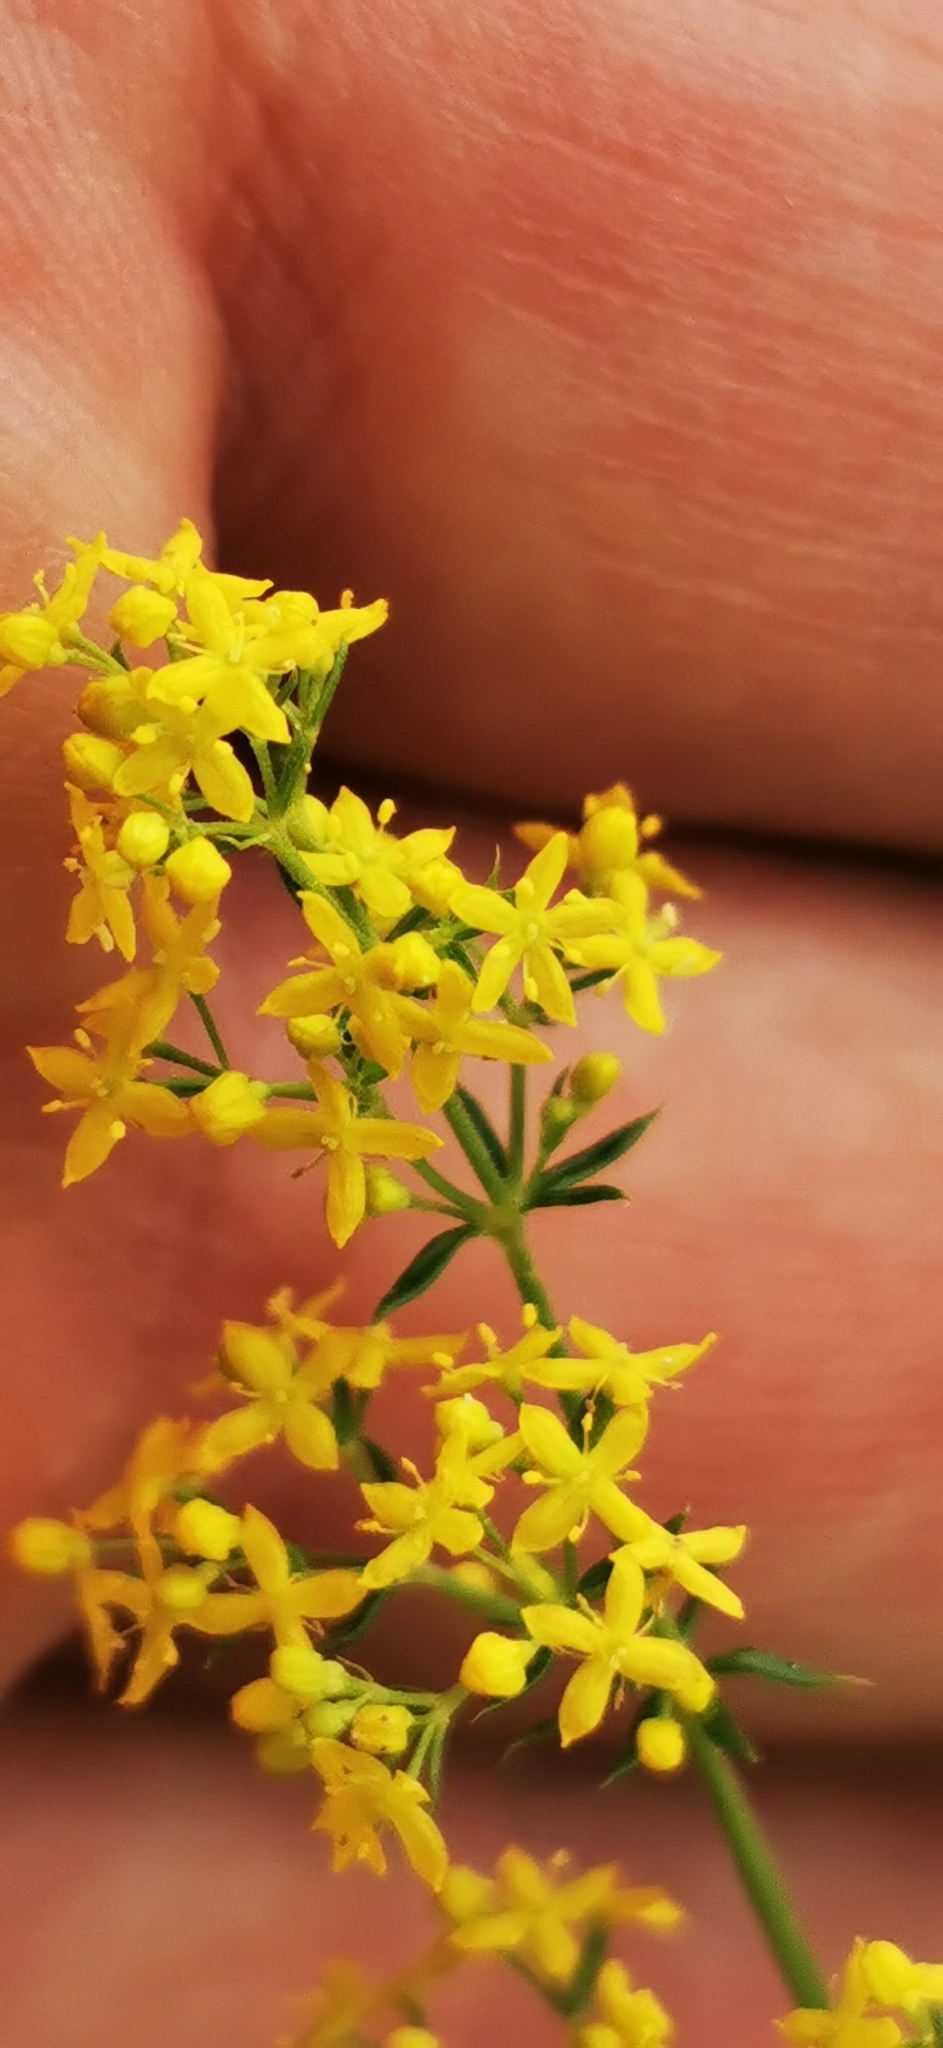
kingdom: Plantae
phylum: Tracheophyta
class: Magnoliopsida
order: Gentianales
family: Rubiaceae
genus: Galium
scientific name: Galium verum
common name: Lady's bedstraw
